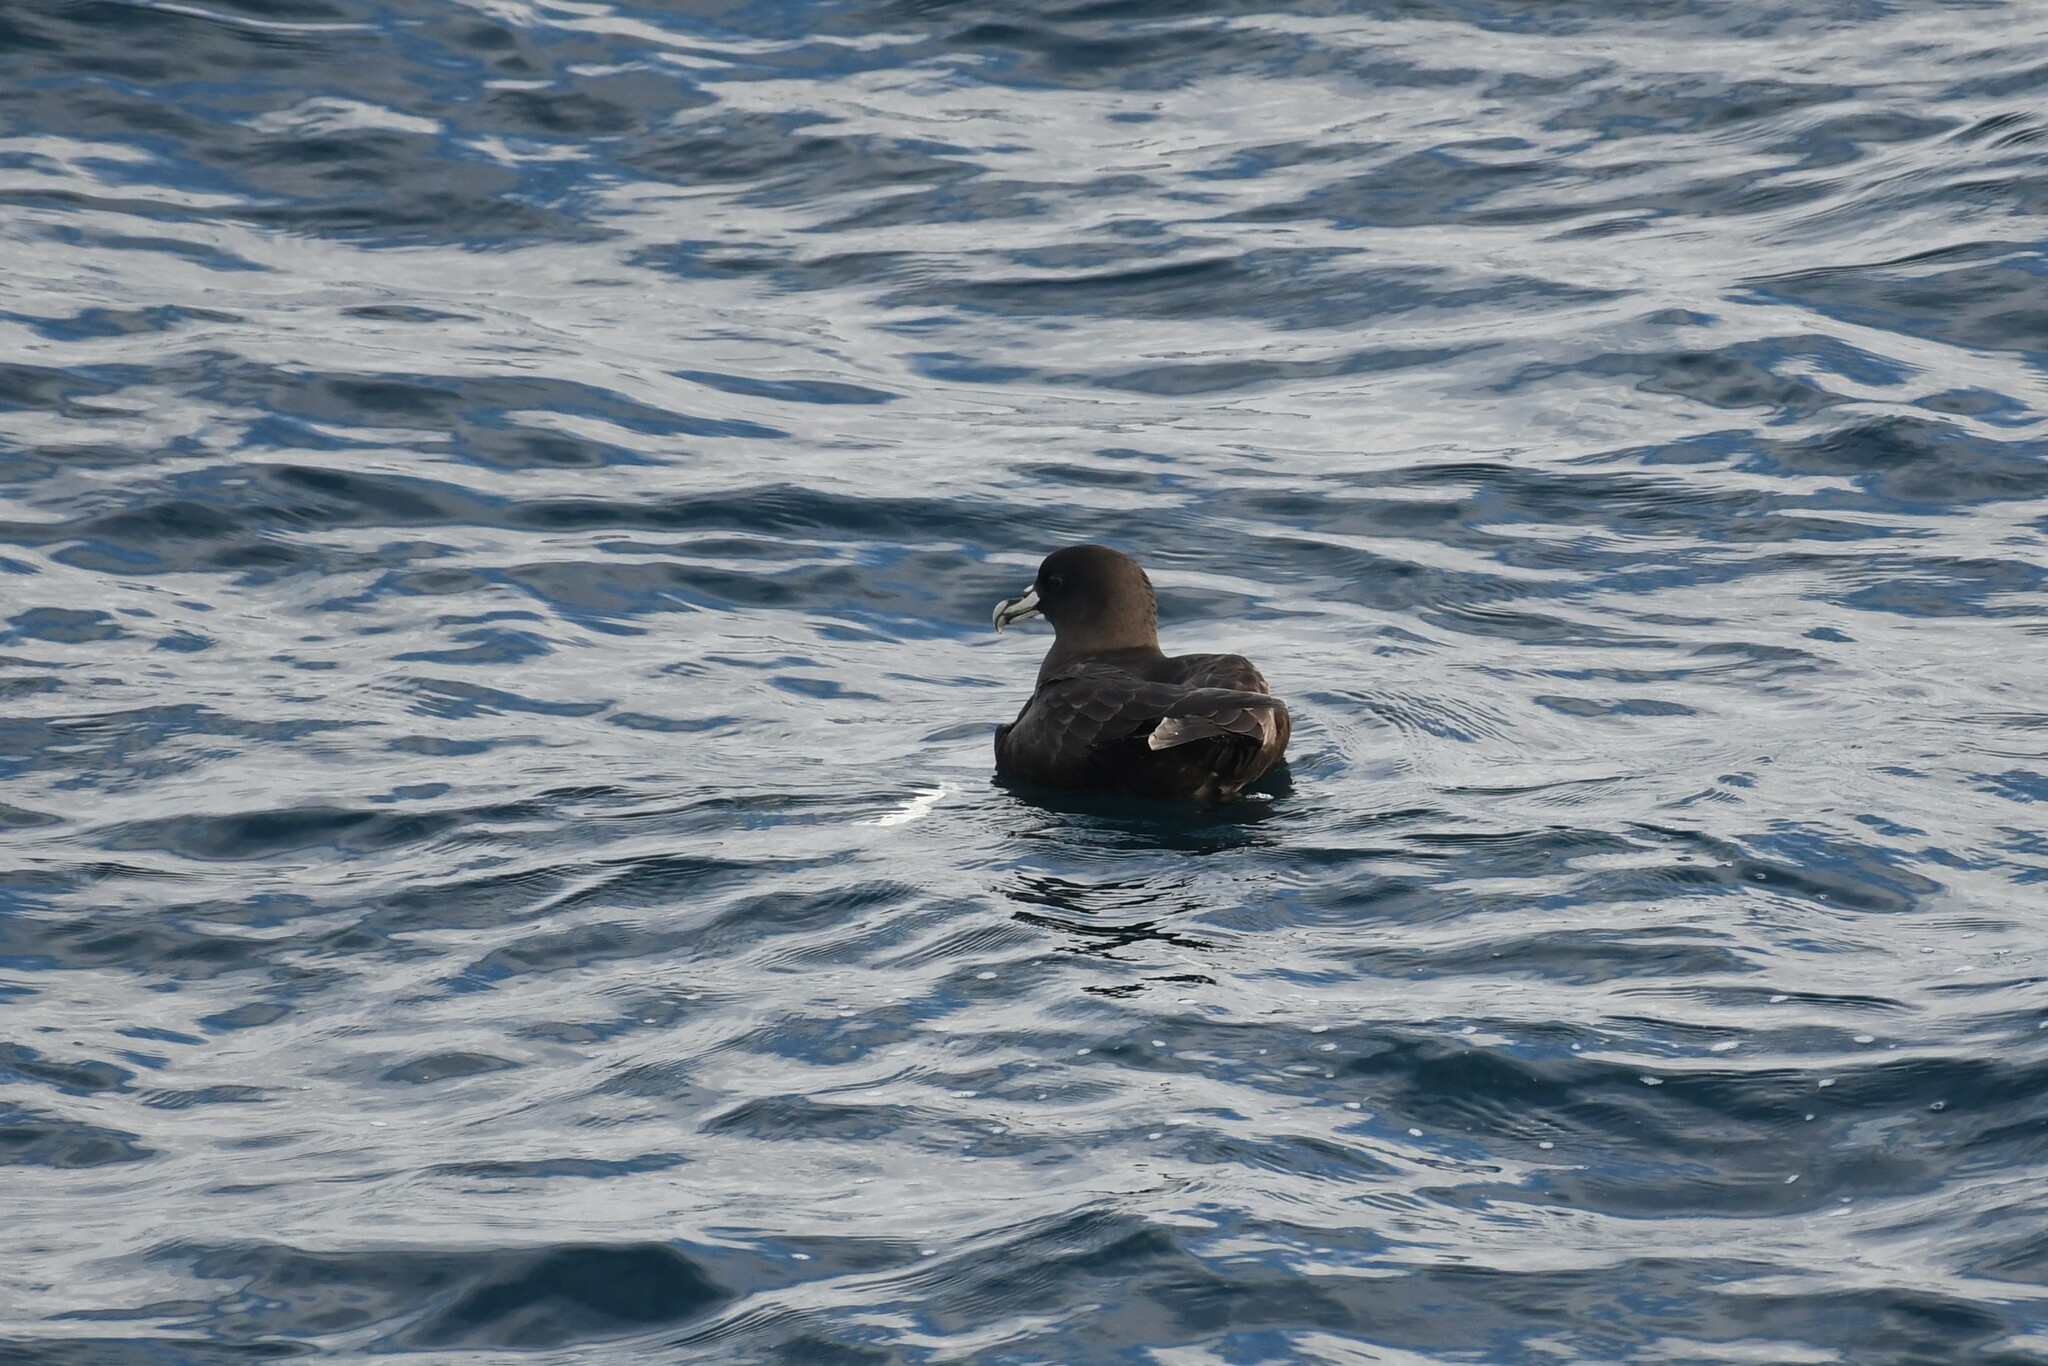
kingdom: Animalia
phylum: Chordata
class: Aves
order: Procellariiformes
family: Procellariidae
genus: Procellaria
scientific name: Procellaria aequinoctialis
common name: White-chinned petrel
